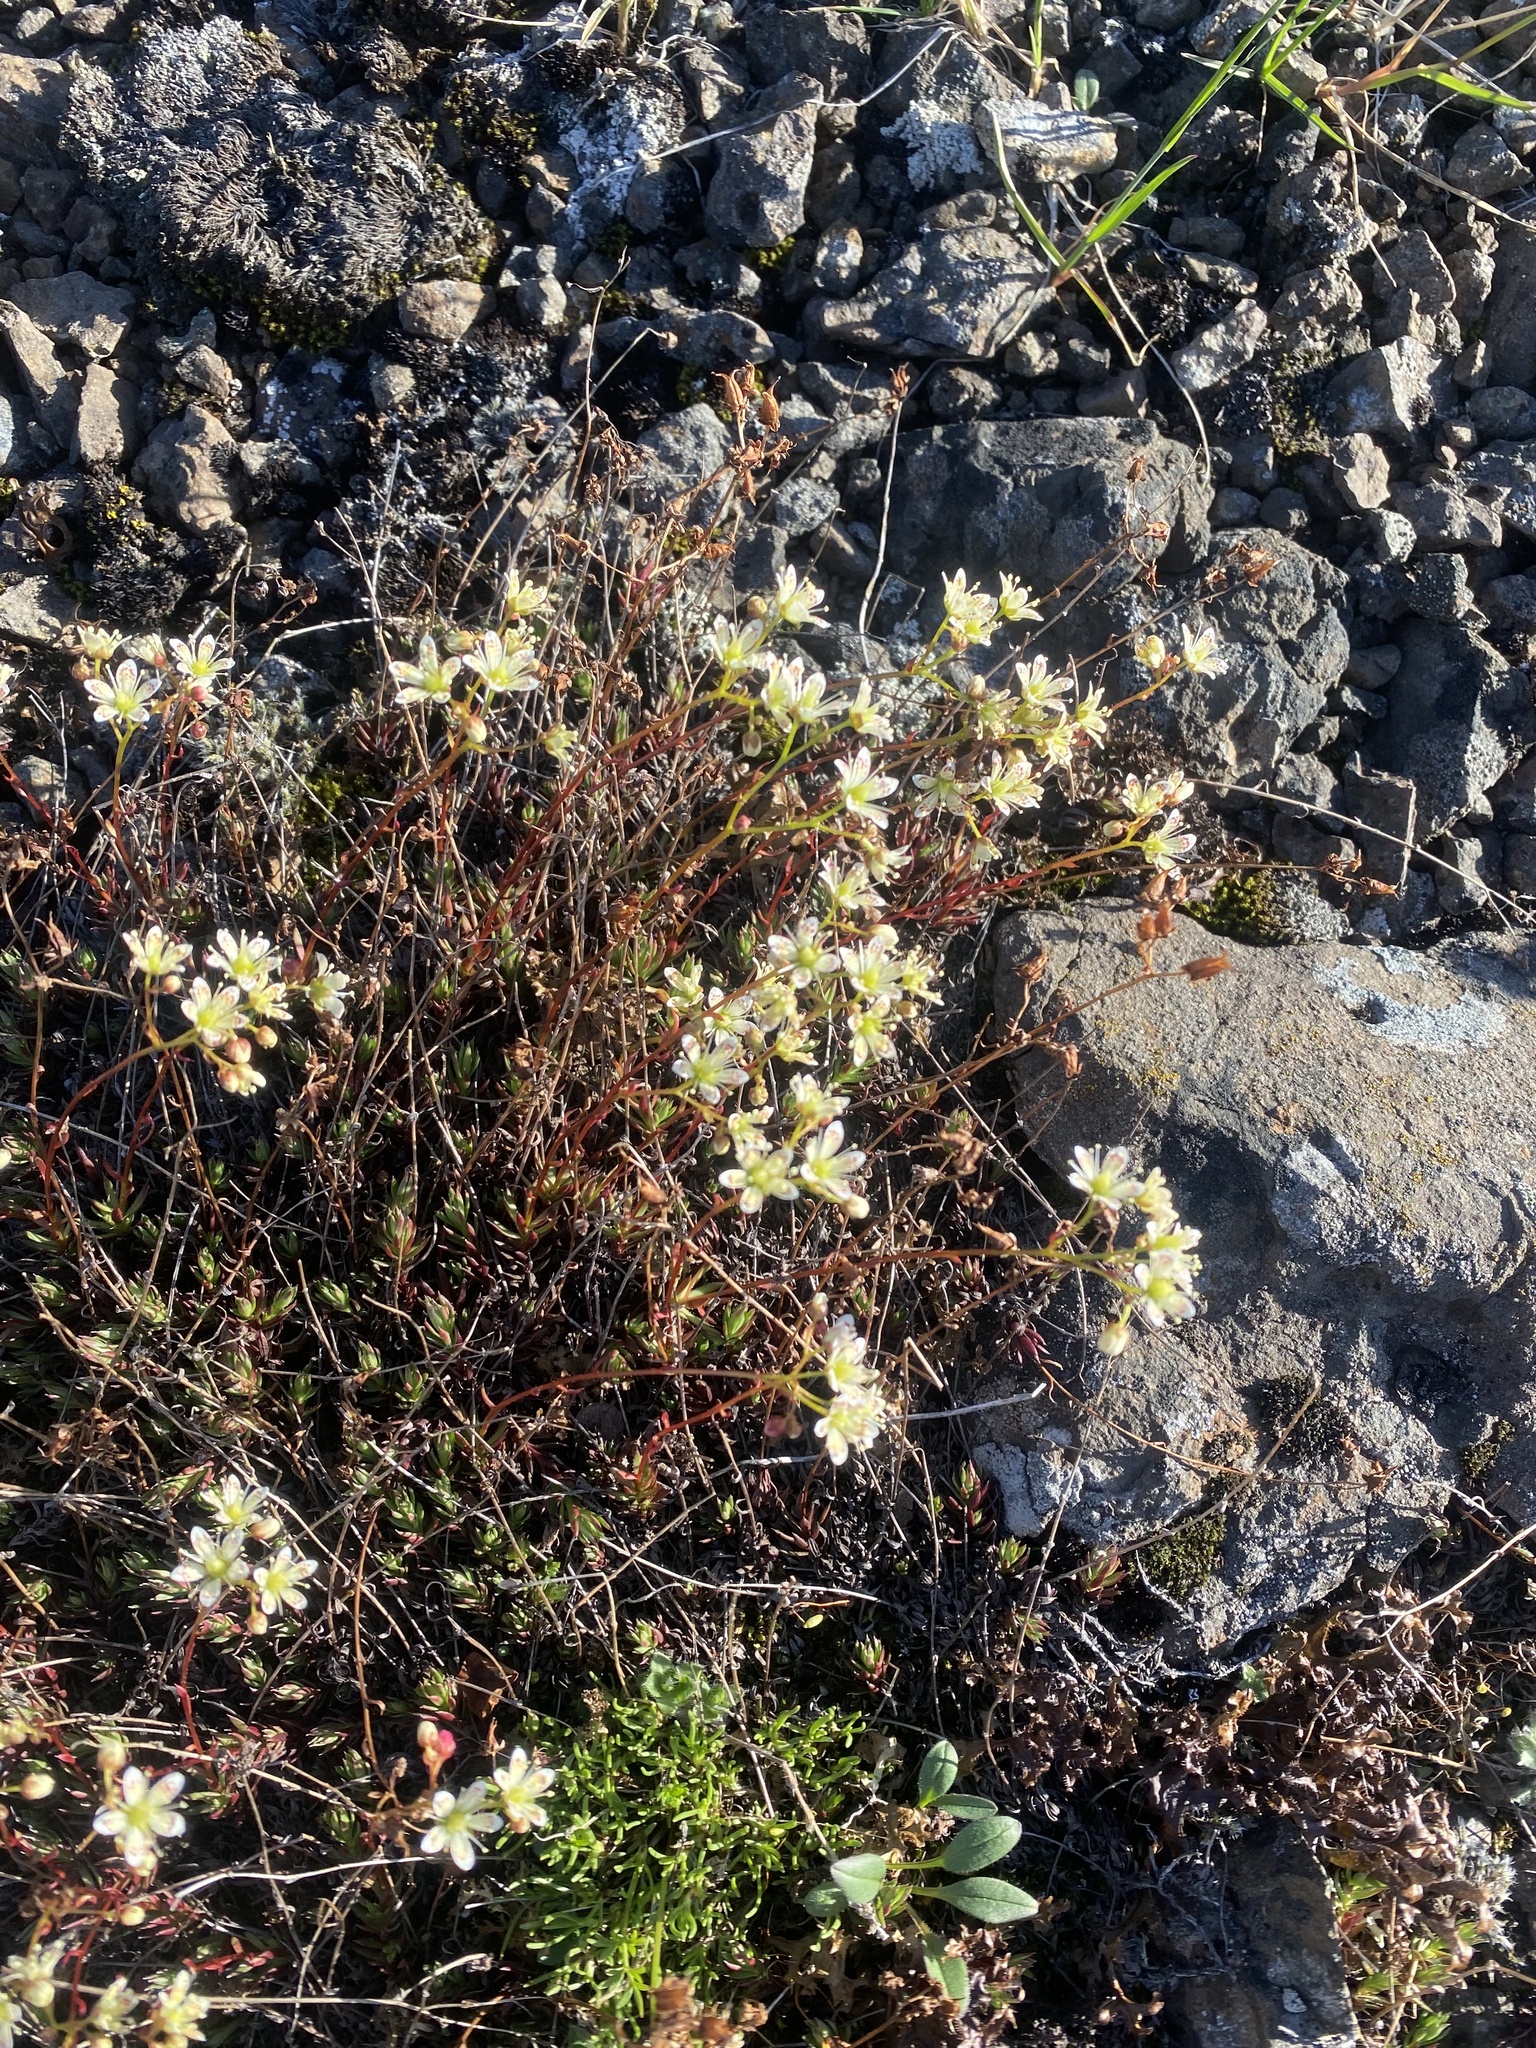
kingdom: Plantae
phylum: Tracheophyta
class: Magnoliopsida
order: Saxifragales
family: Saxifragaceae
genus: Saxifraga
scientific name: Saxifraga
